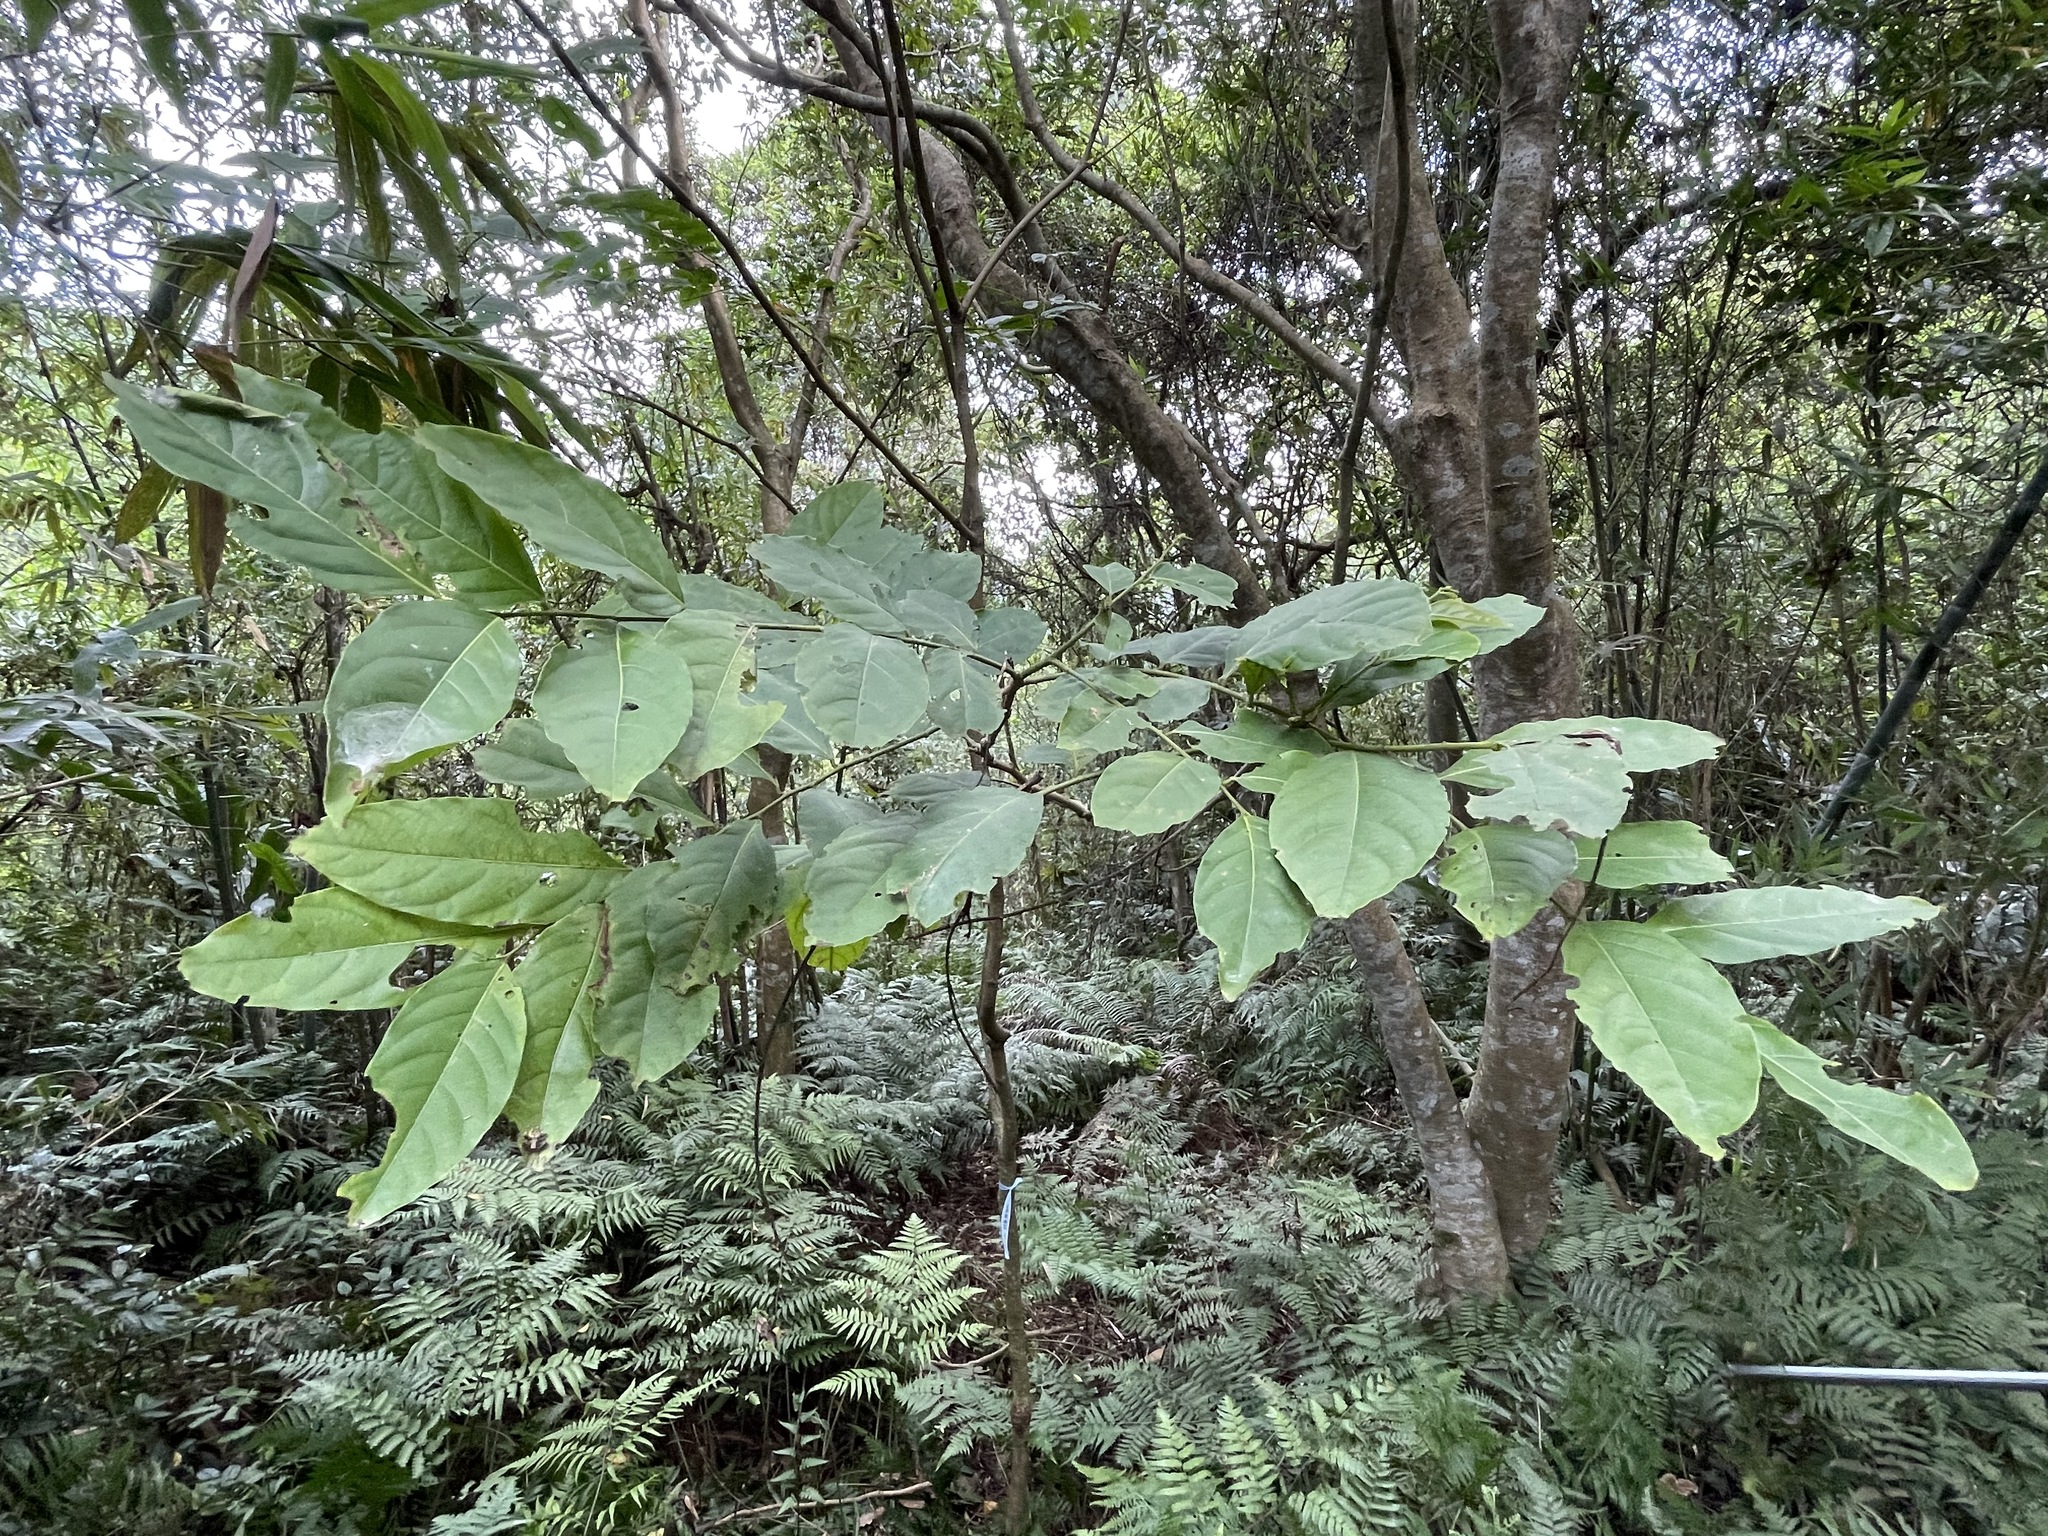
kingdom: Plantae
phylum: Tracheophyta
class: Magnoliopsida
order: Malpighiales
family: Phyllanthaceae
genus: Glochidion
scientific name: Glochidion zeylanicum
